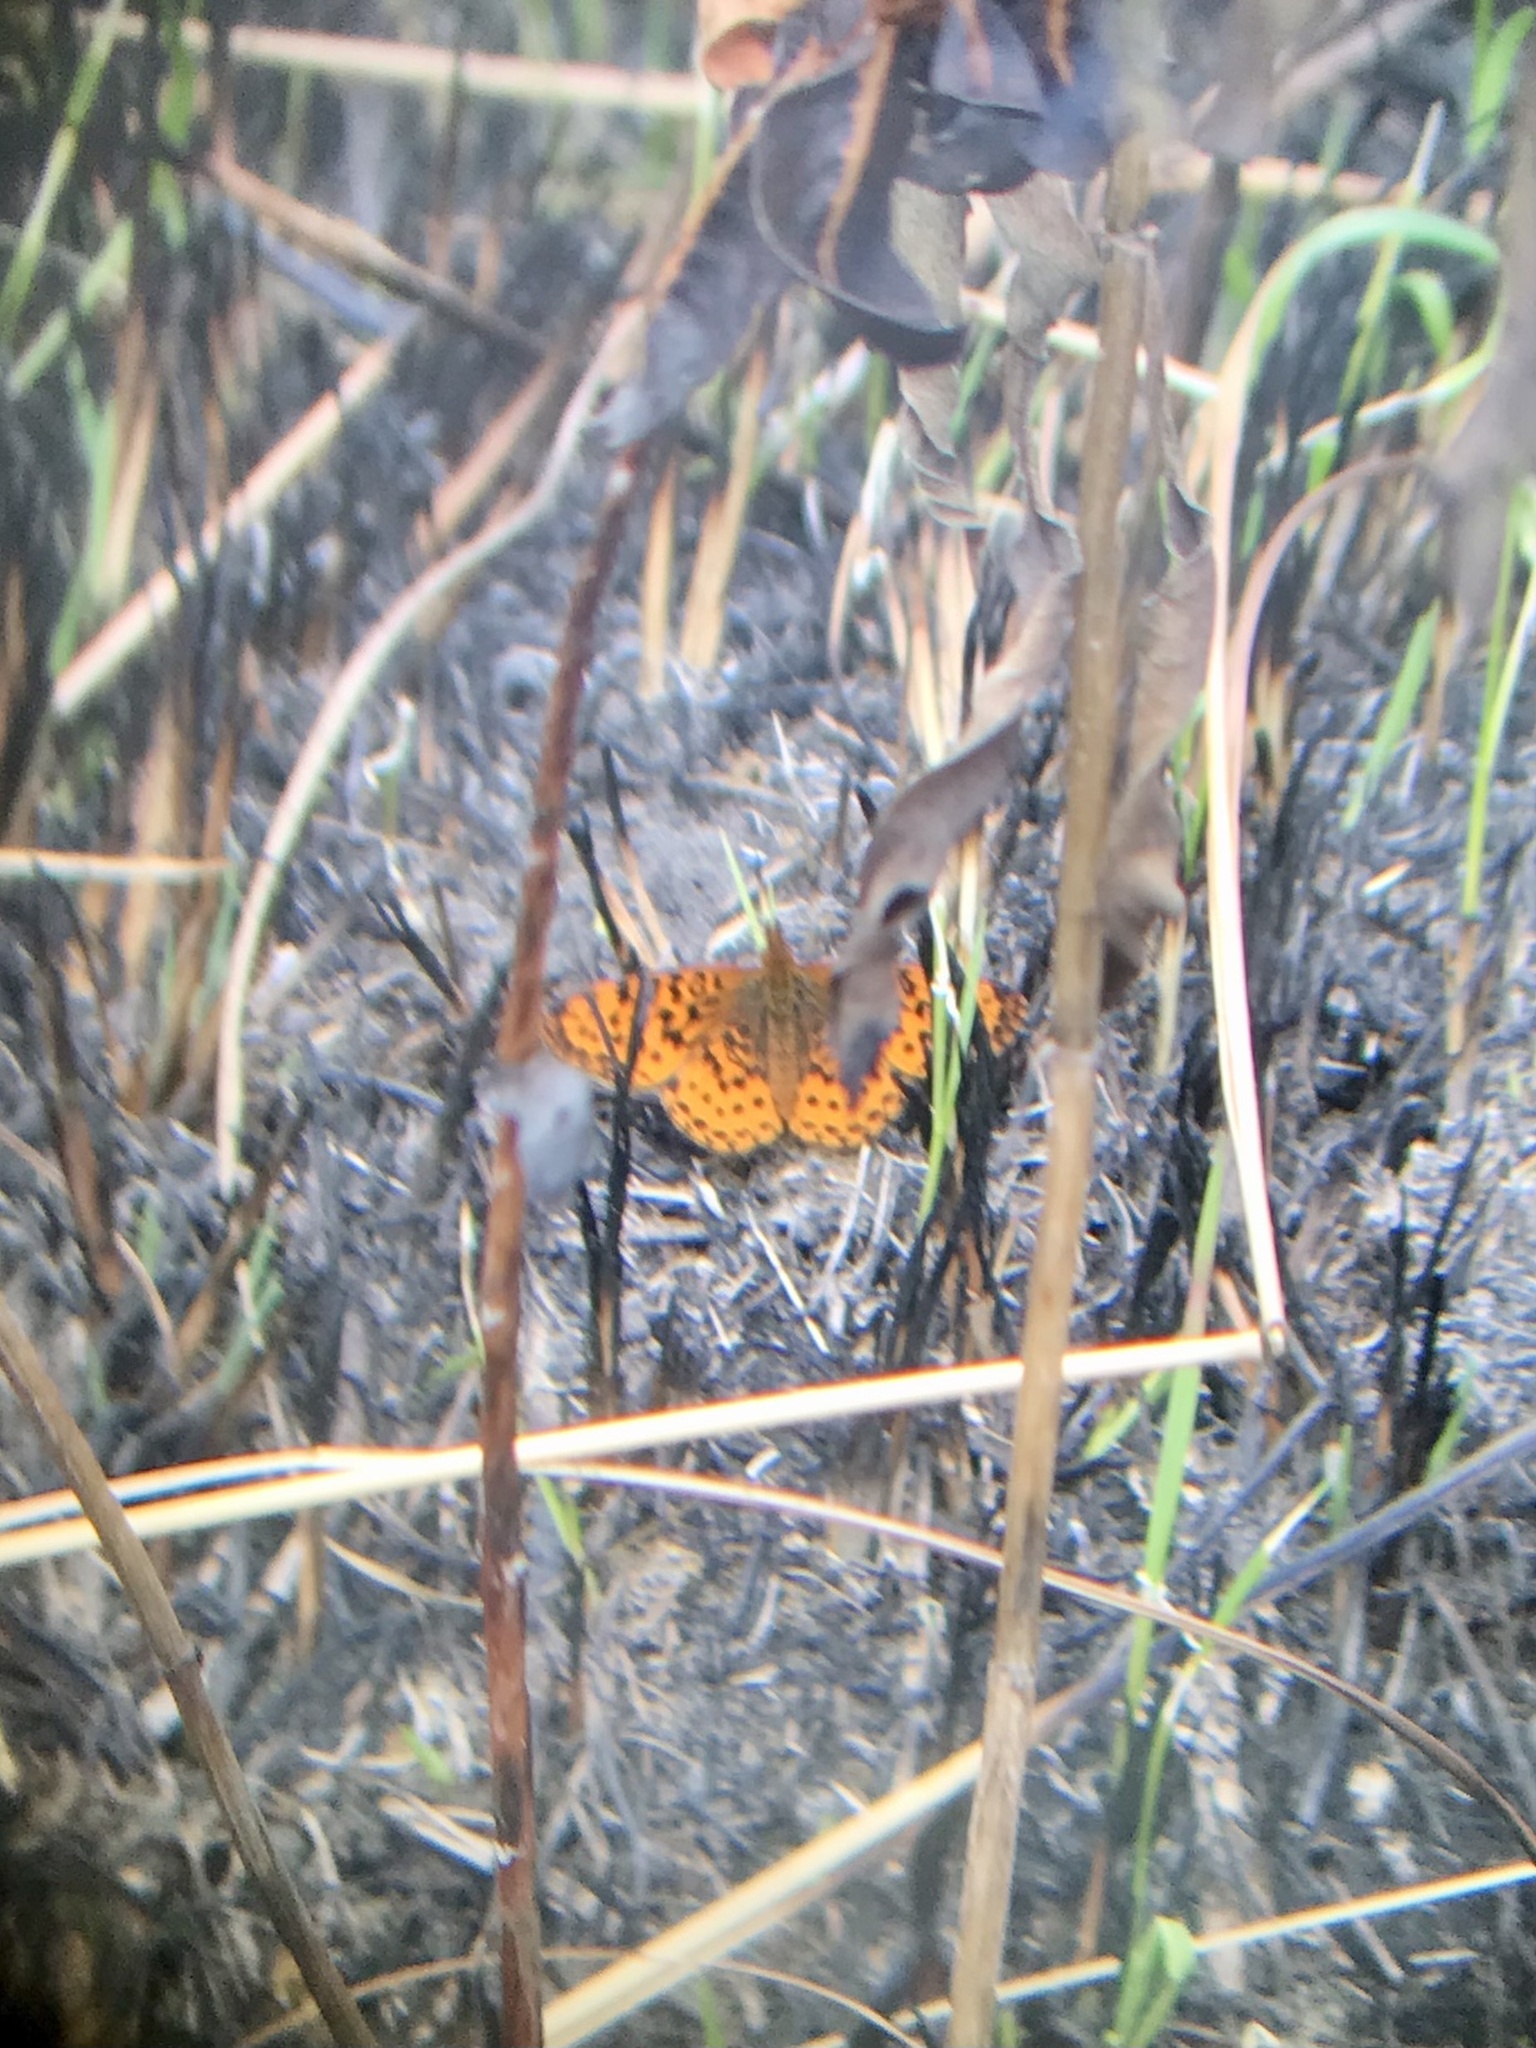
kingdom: Animalia
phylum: Arthropoda
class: Insecta
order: Lepidoptera
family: Nymphalidae
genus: Clossiana
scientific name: Clossiana toddi
